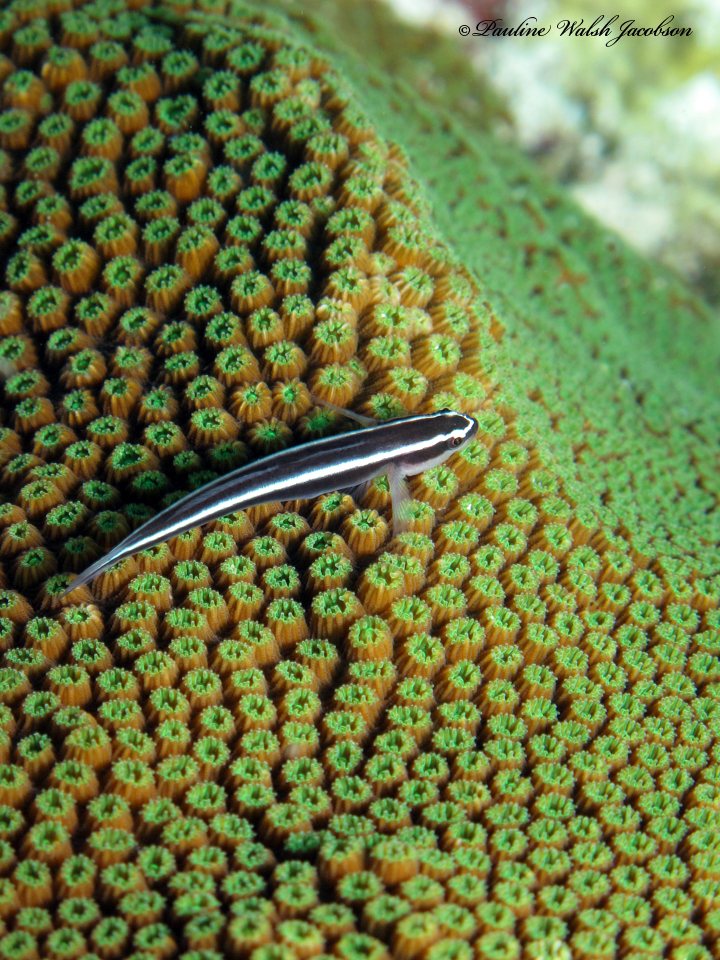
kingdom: Animalia
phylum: Chordata
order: Perciformes
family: Gobiidae
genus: Elacatinus
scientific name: Elacatinus prochilos
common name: Broadstripe goby
